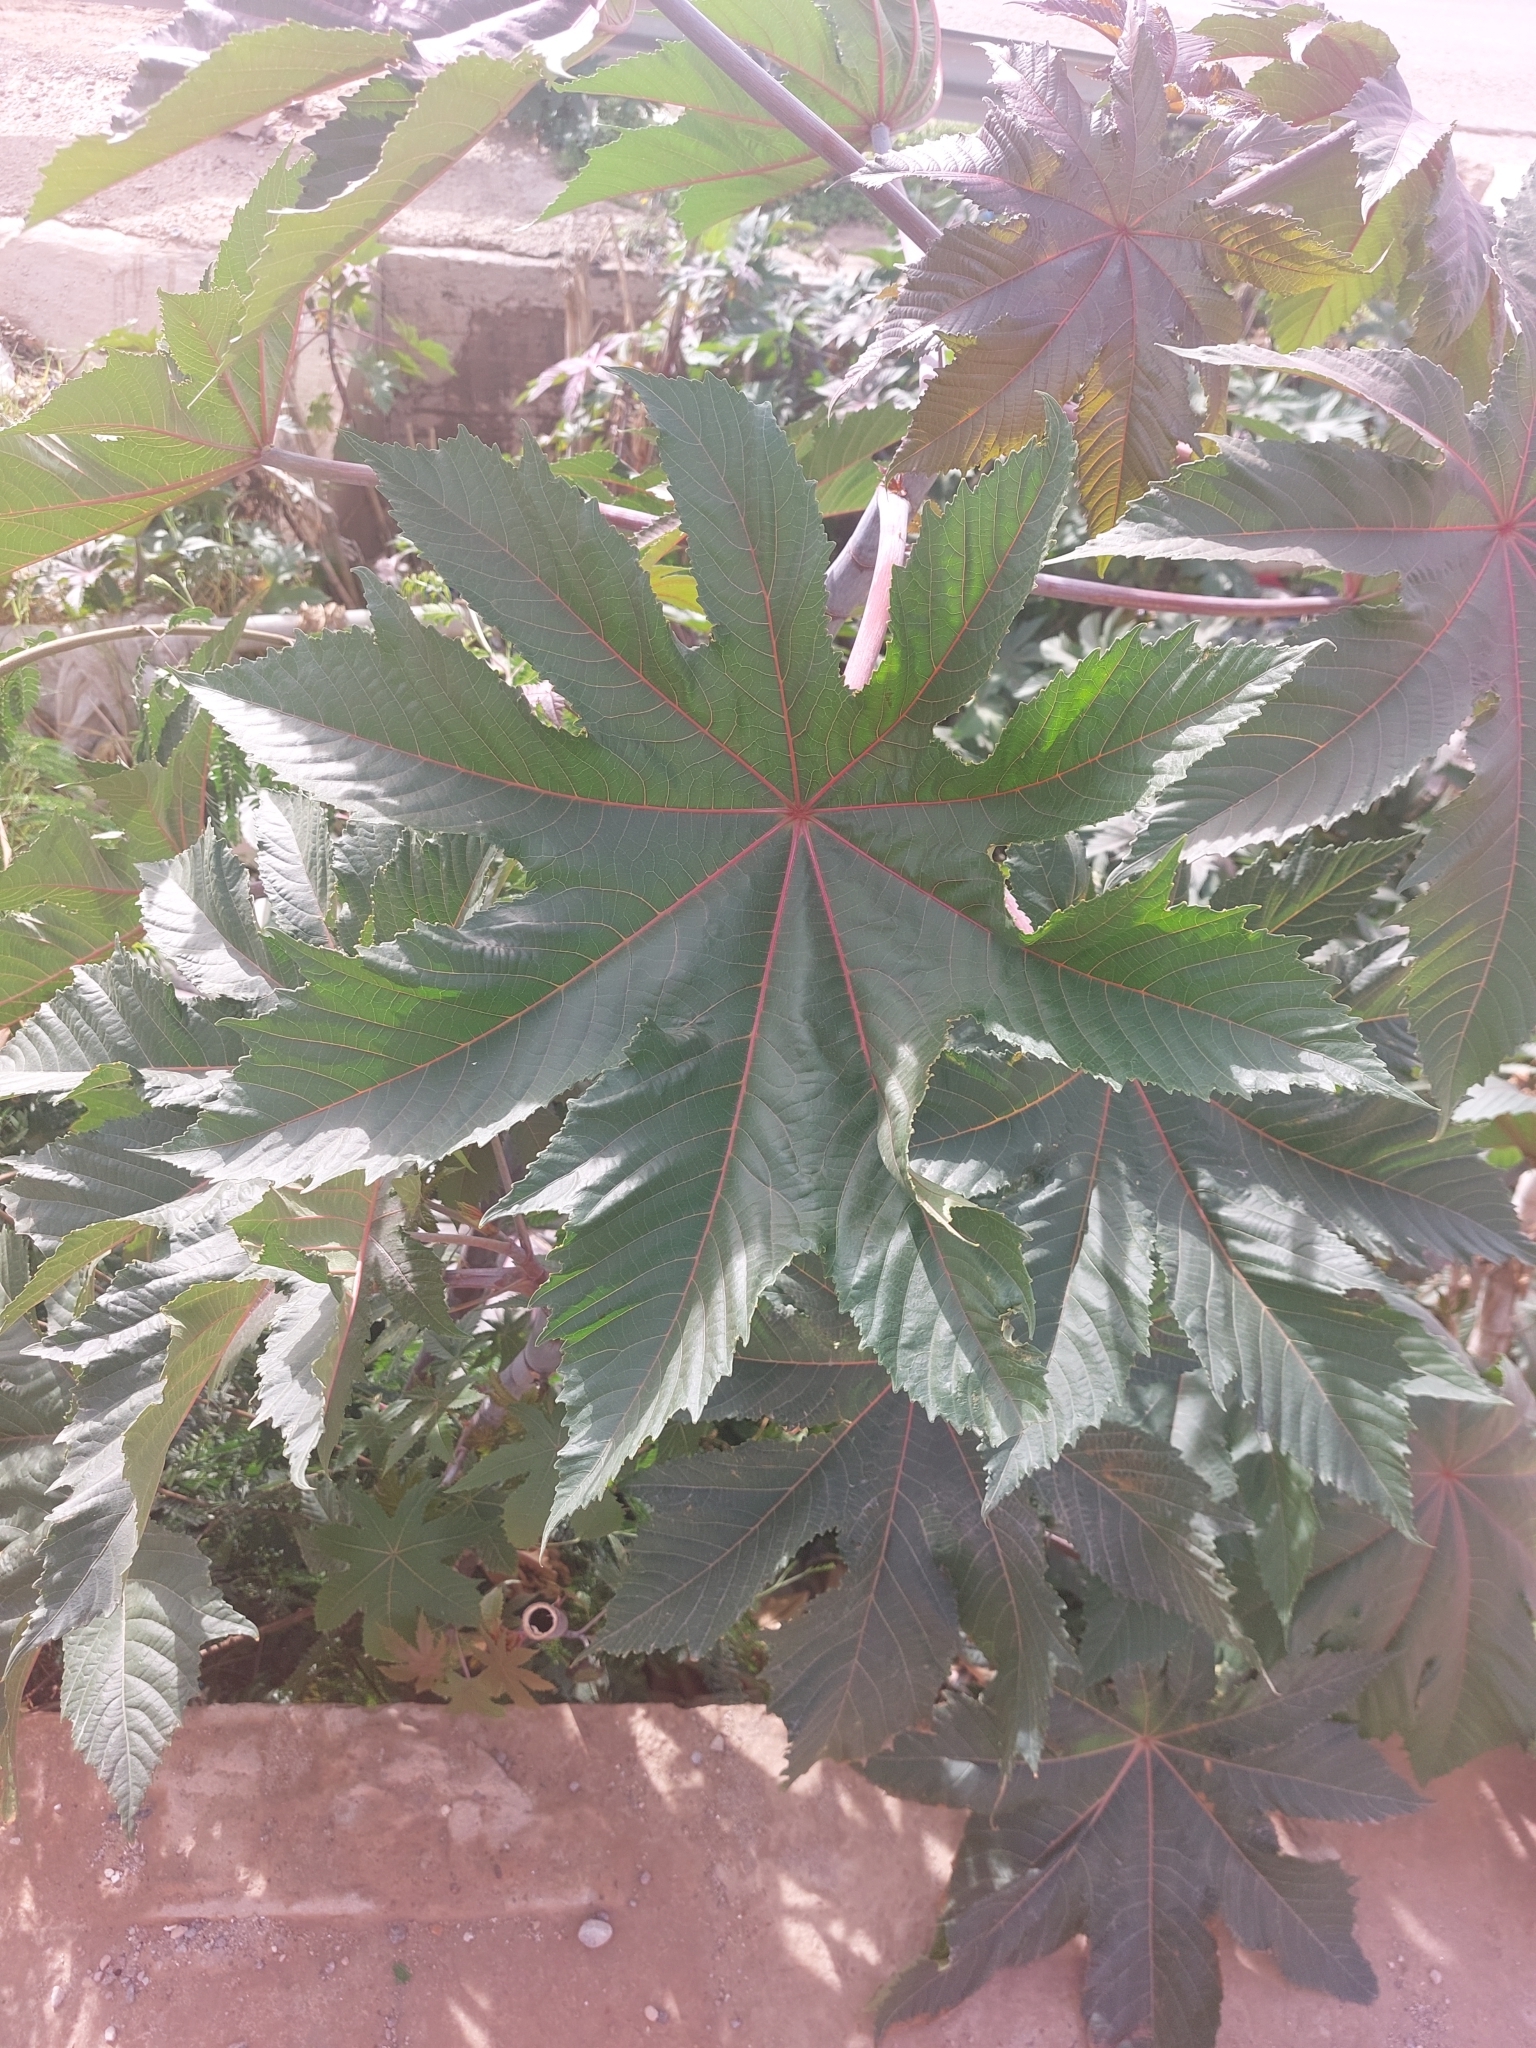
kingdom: Plantae
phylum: Tracheophyta
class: Magnoliopsida
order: Malpighiales
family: Euphorbiaceae
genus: Ricinus
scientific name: Ricinus communis
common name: Castor-oil-plant
